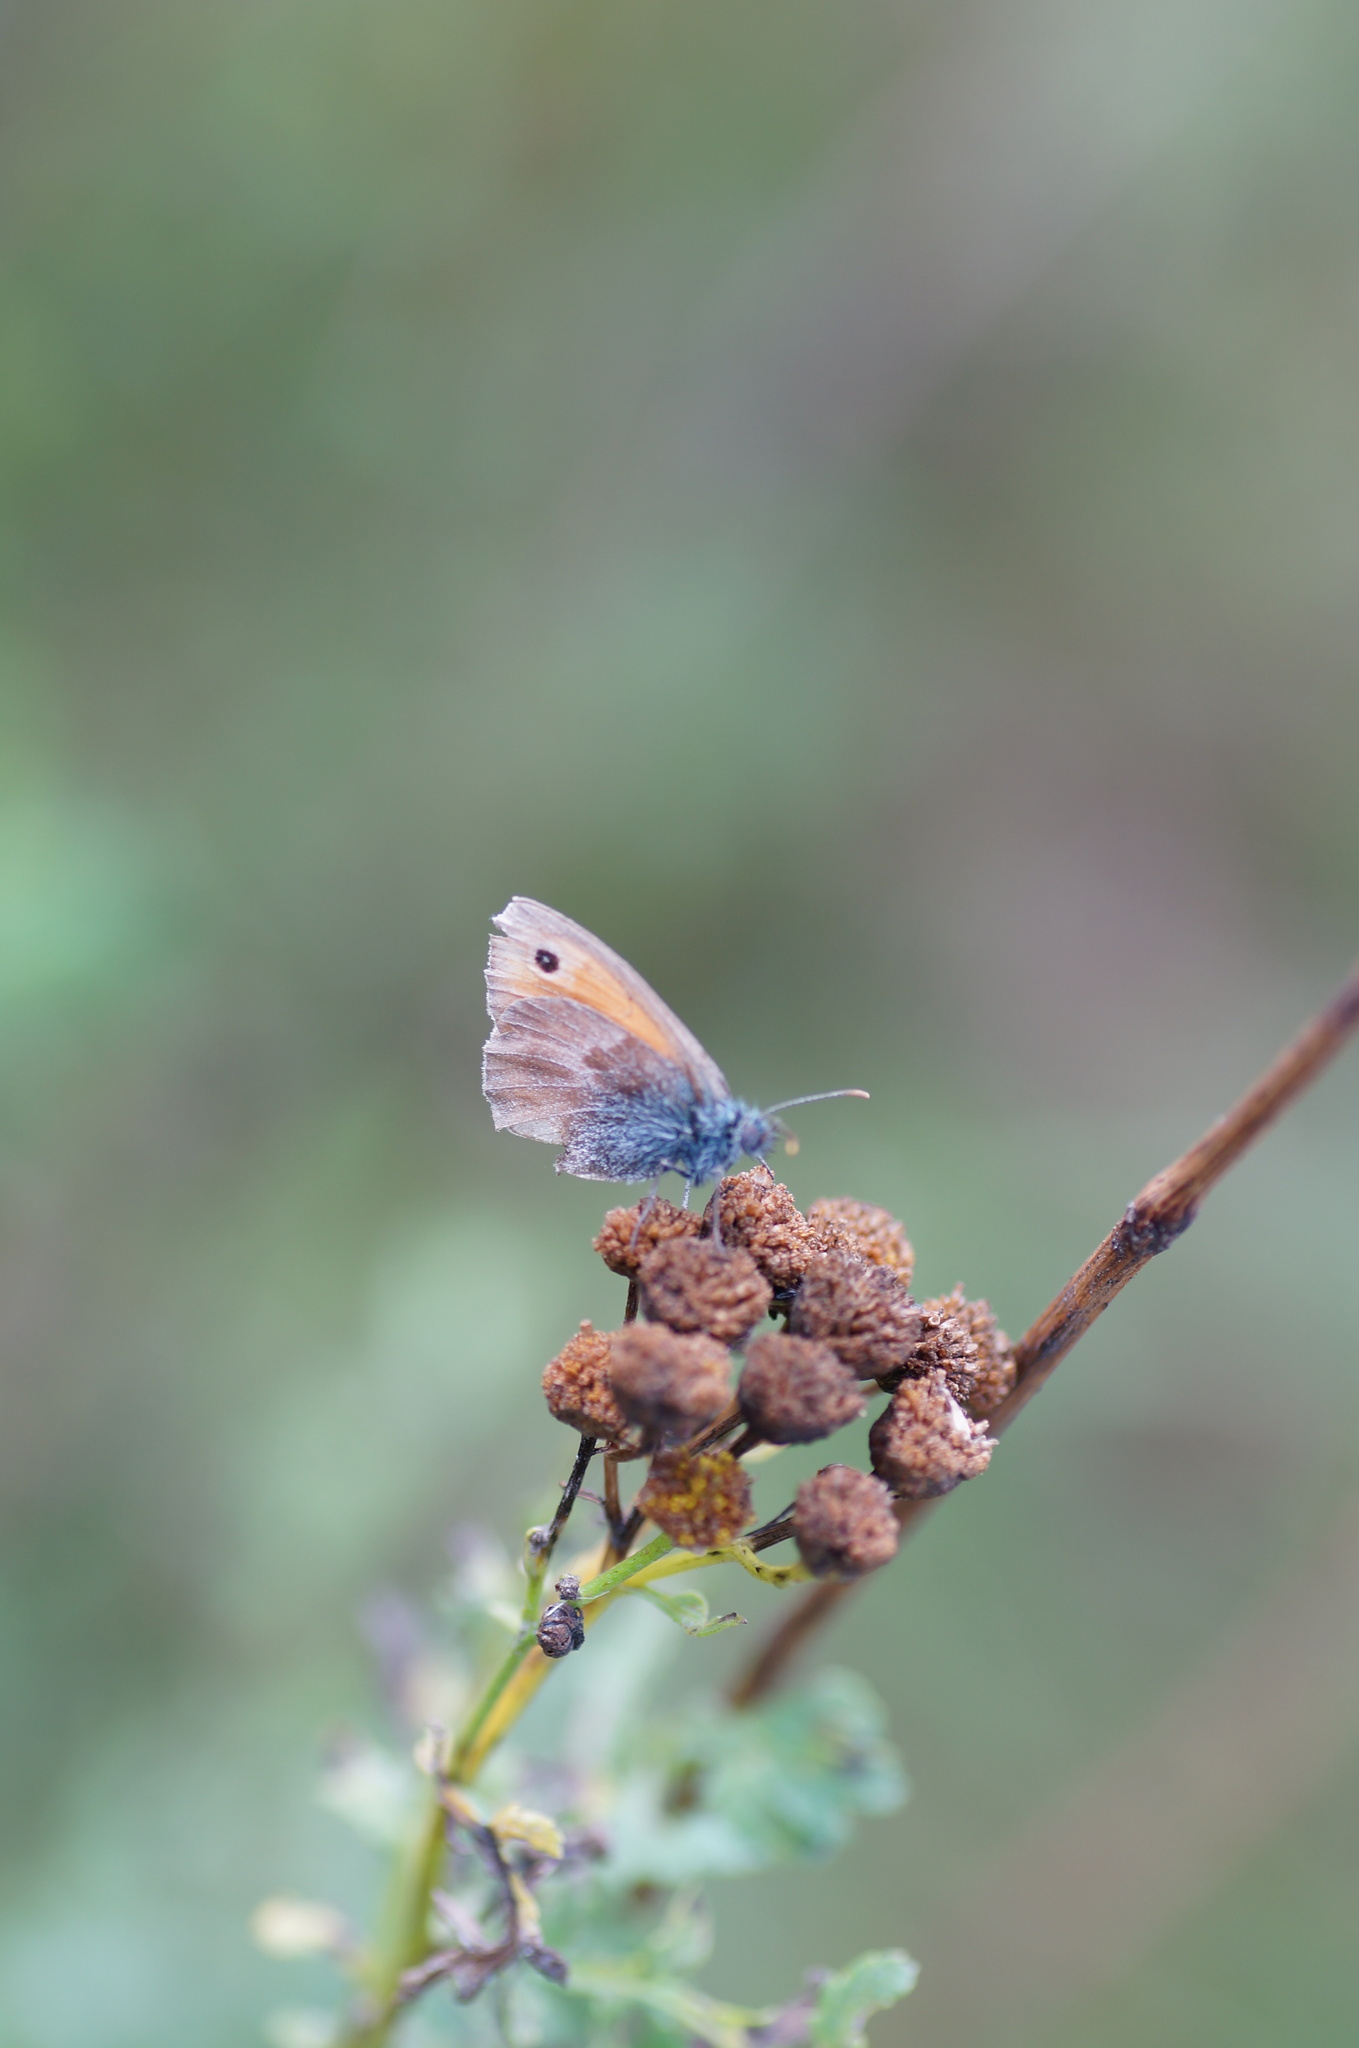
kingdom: Animalia
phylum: Arthropoda
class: Insecta
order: Lepidoptera
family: Nymphalidae
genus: Coenonympha
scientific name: Coenonympha pamphilus
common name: Small heath
